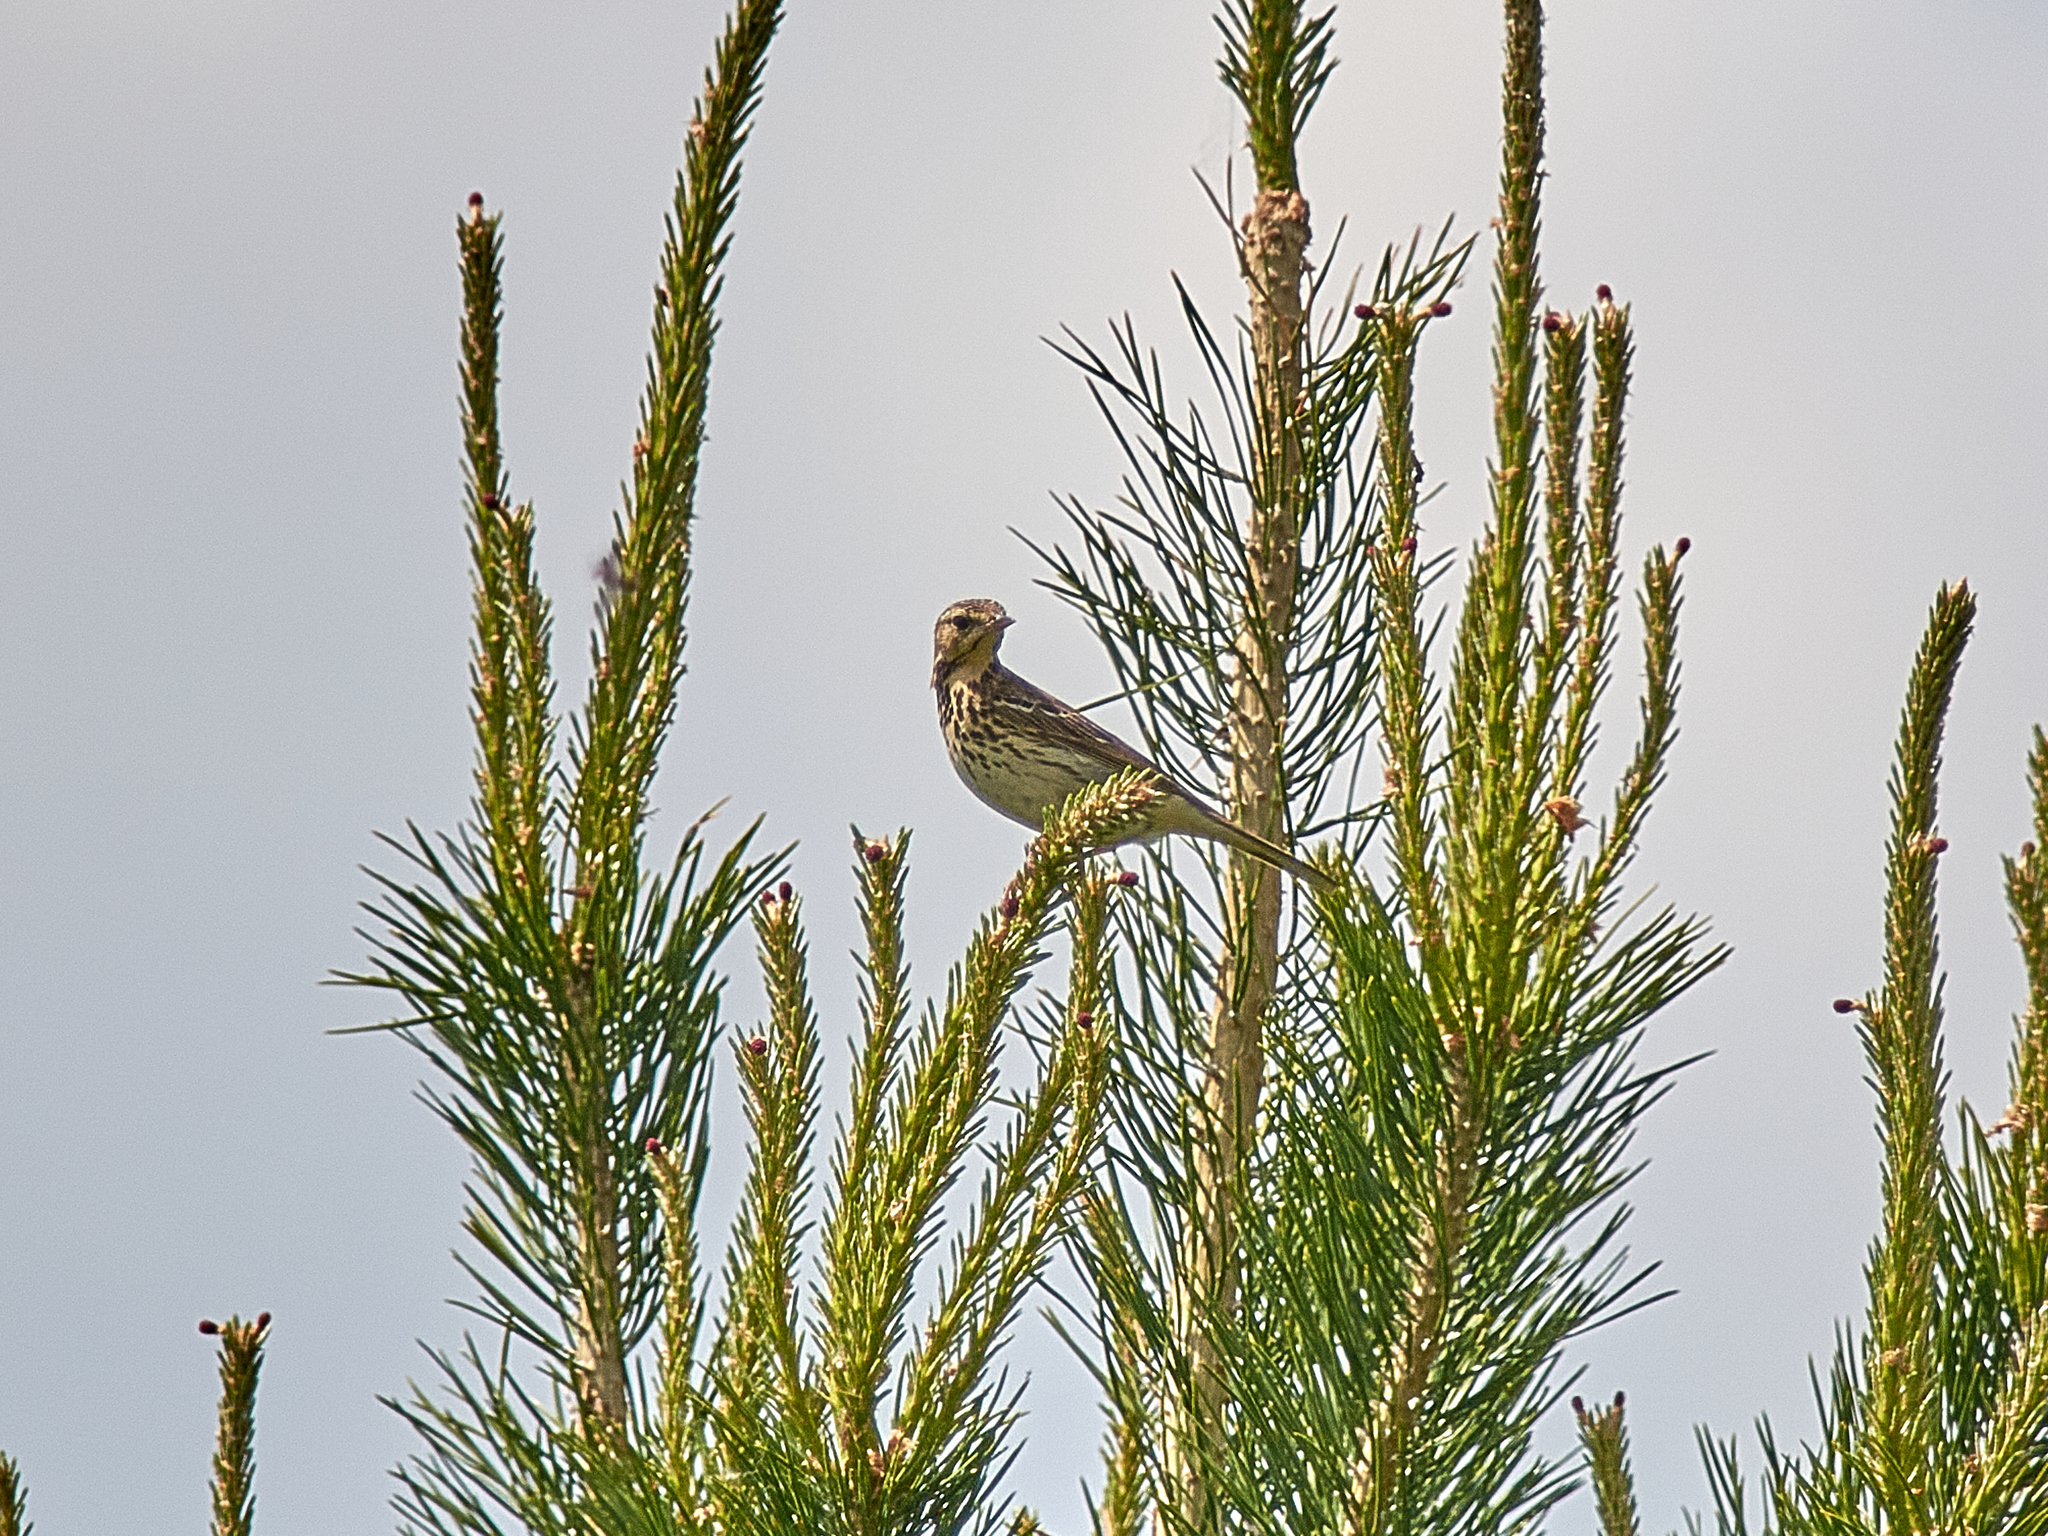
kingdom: Animalia
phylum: Chordata
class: Aves
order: Passeriformes
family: Motacillidae
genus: Anthus
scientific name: Anthus trivialis
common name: Tree pipit
